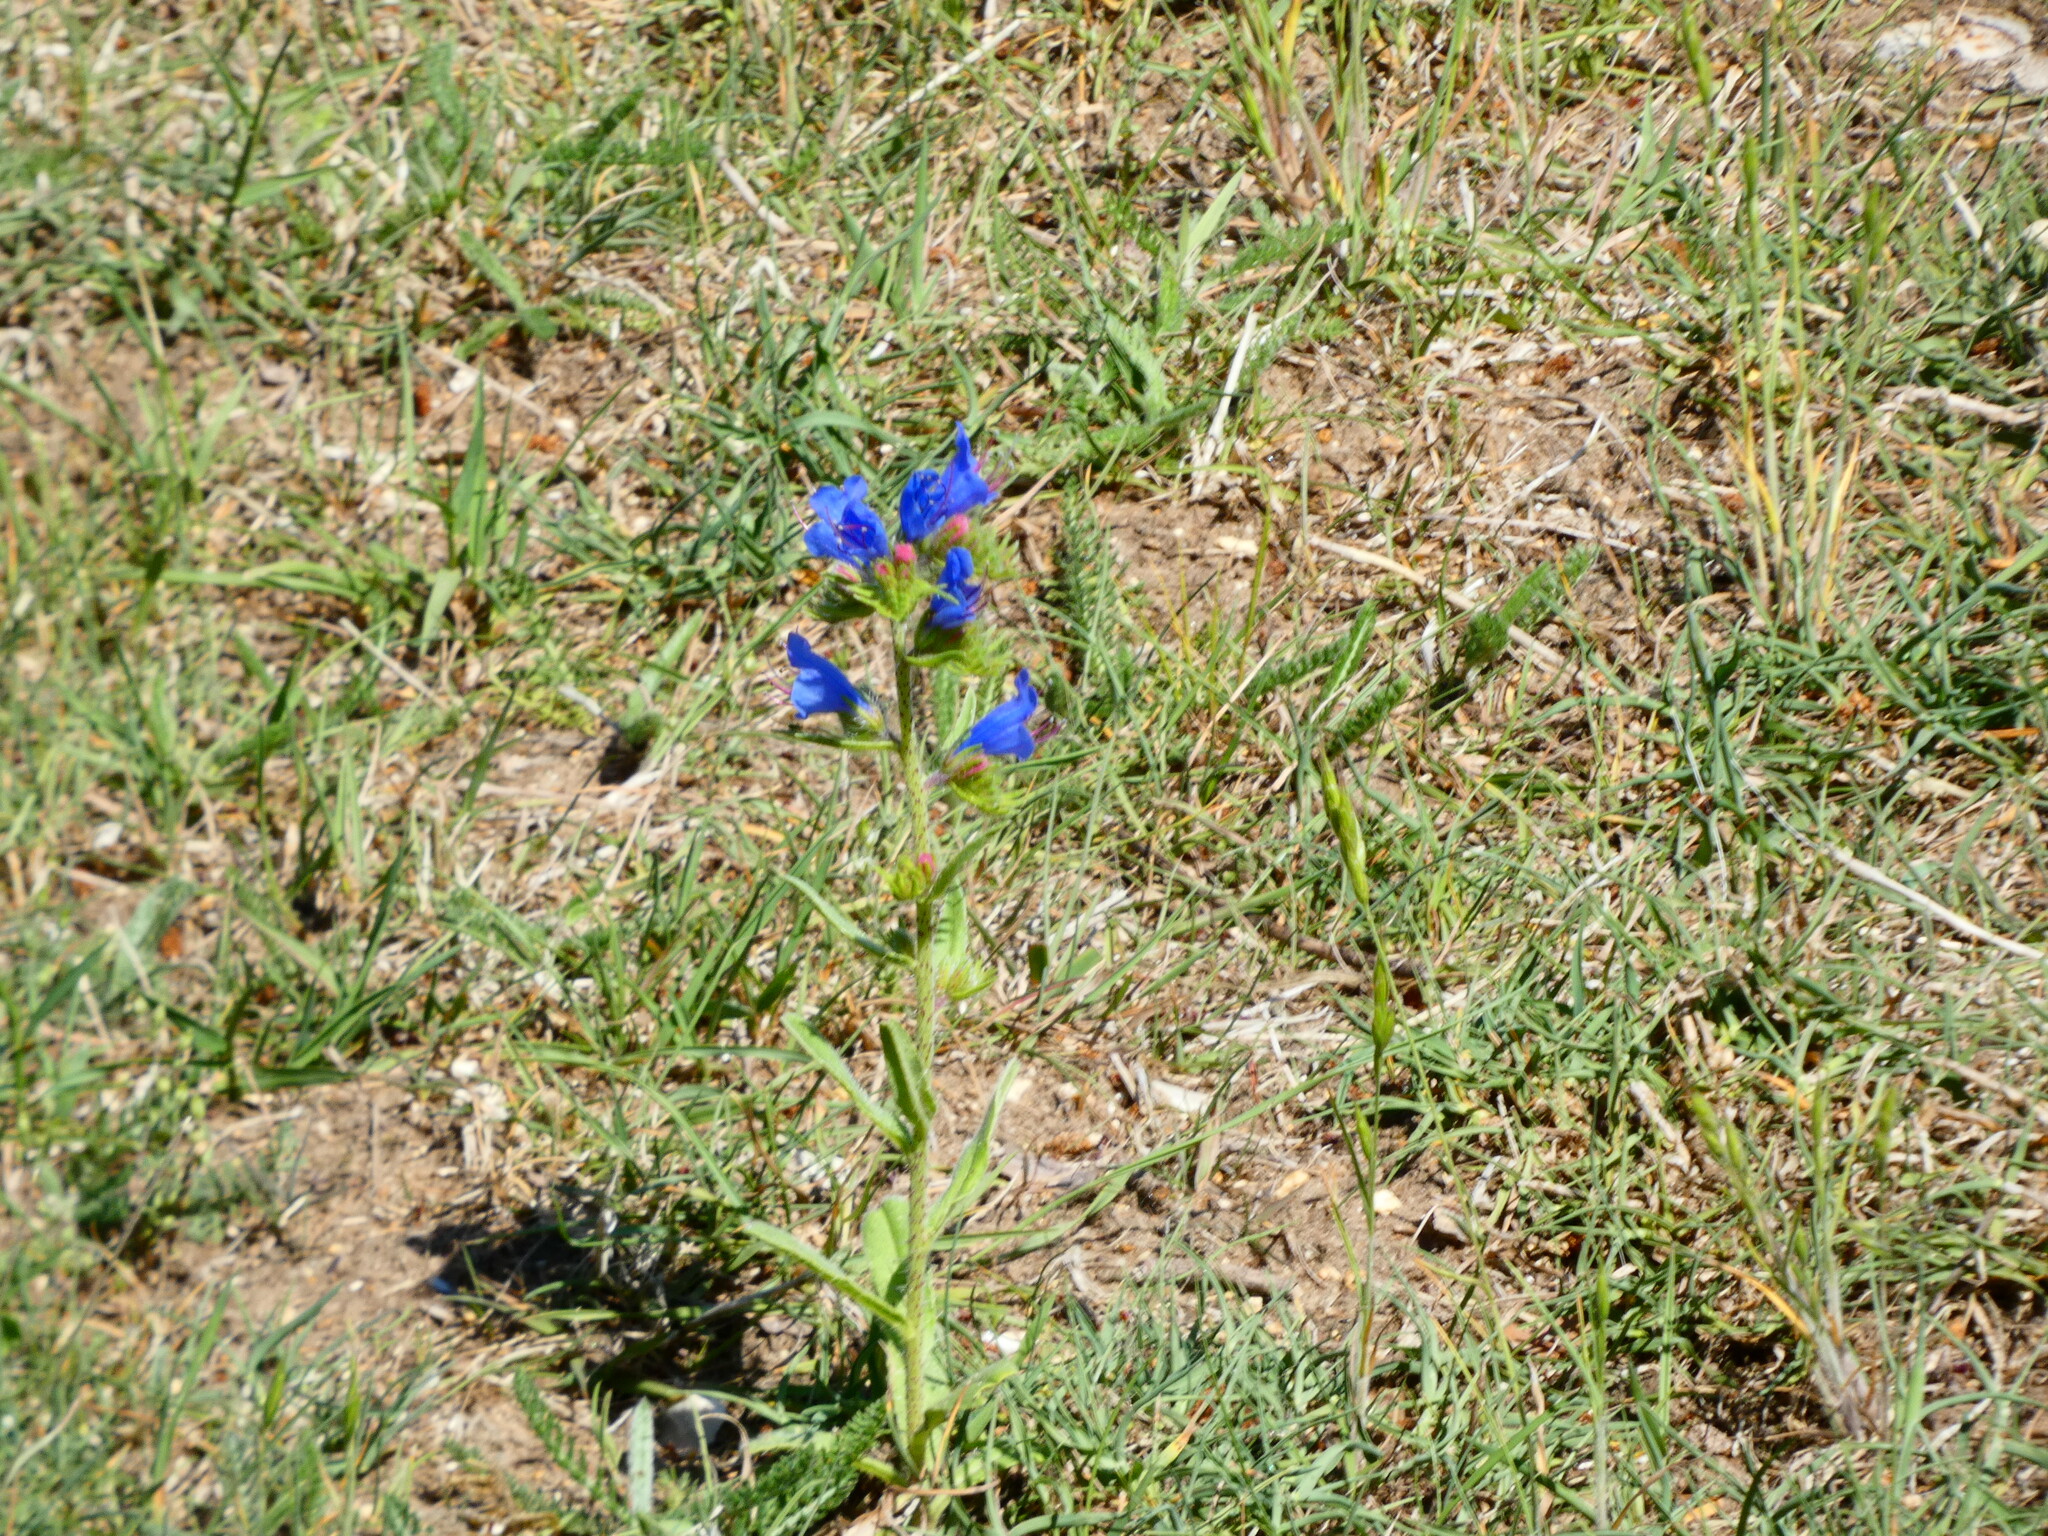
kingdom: Plantae
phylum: Tracheophyta
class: Magnoliopsida
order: Boraginales
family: Boraginaceae
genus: Echium
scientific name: Echium vulgare
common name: Common viper's bugloss
